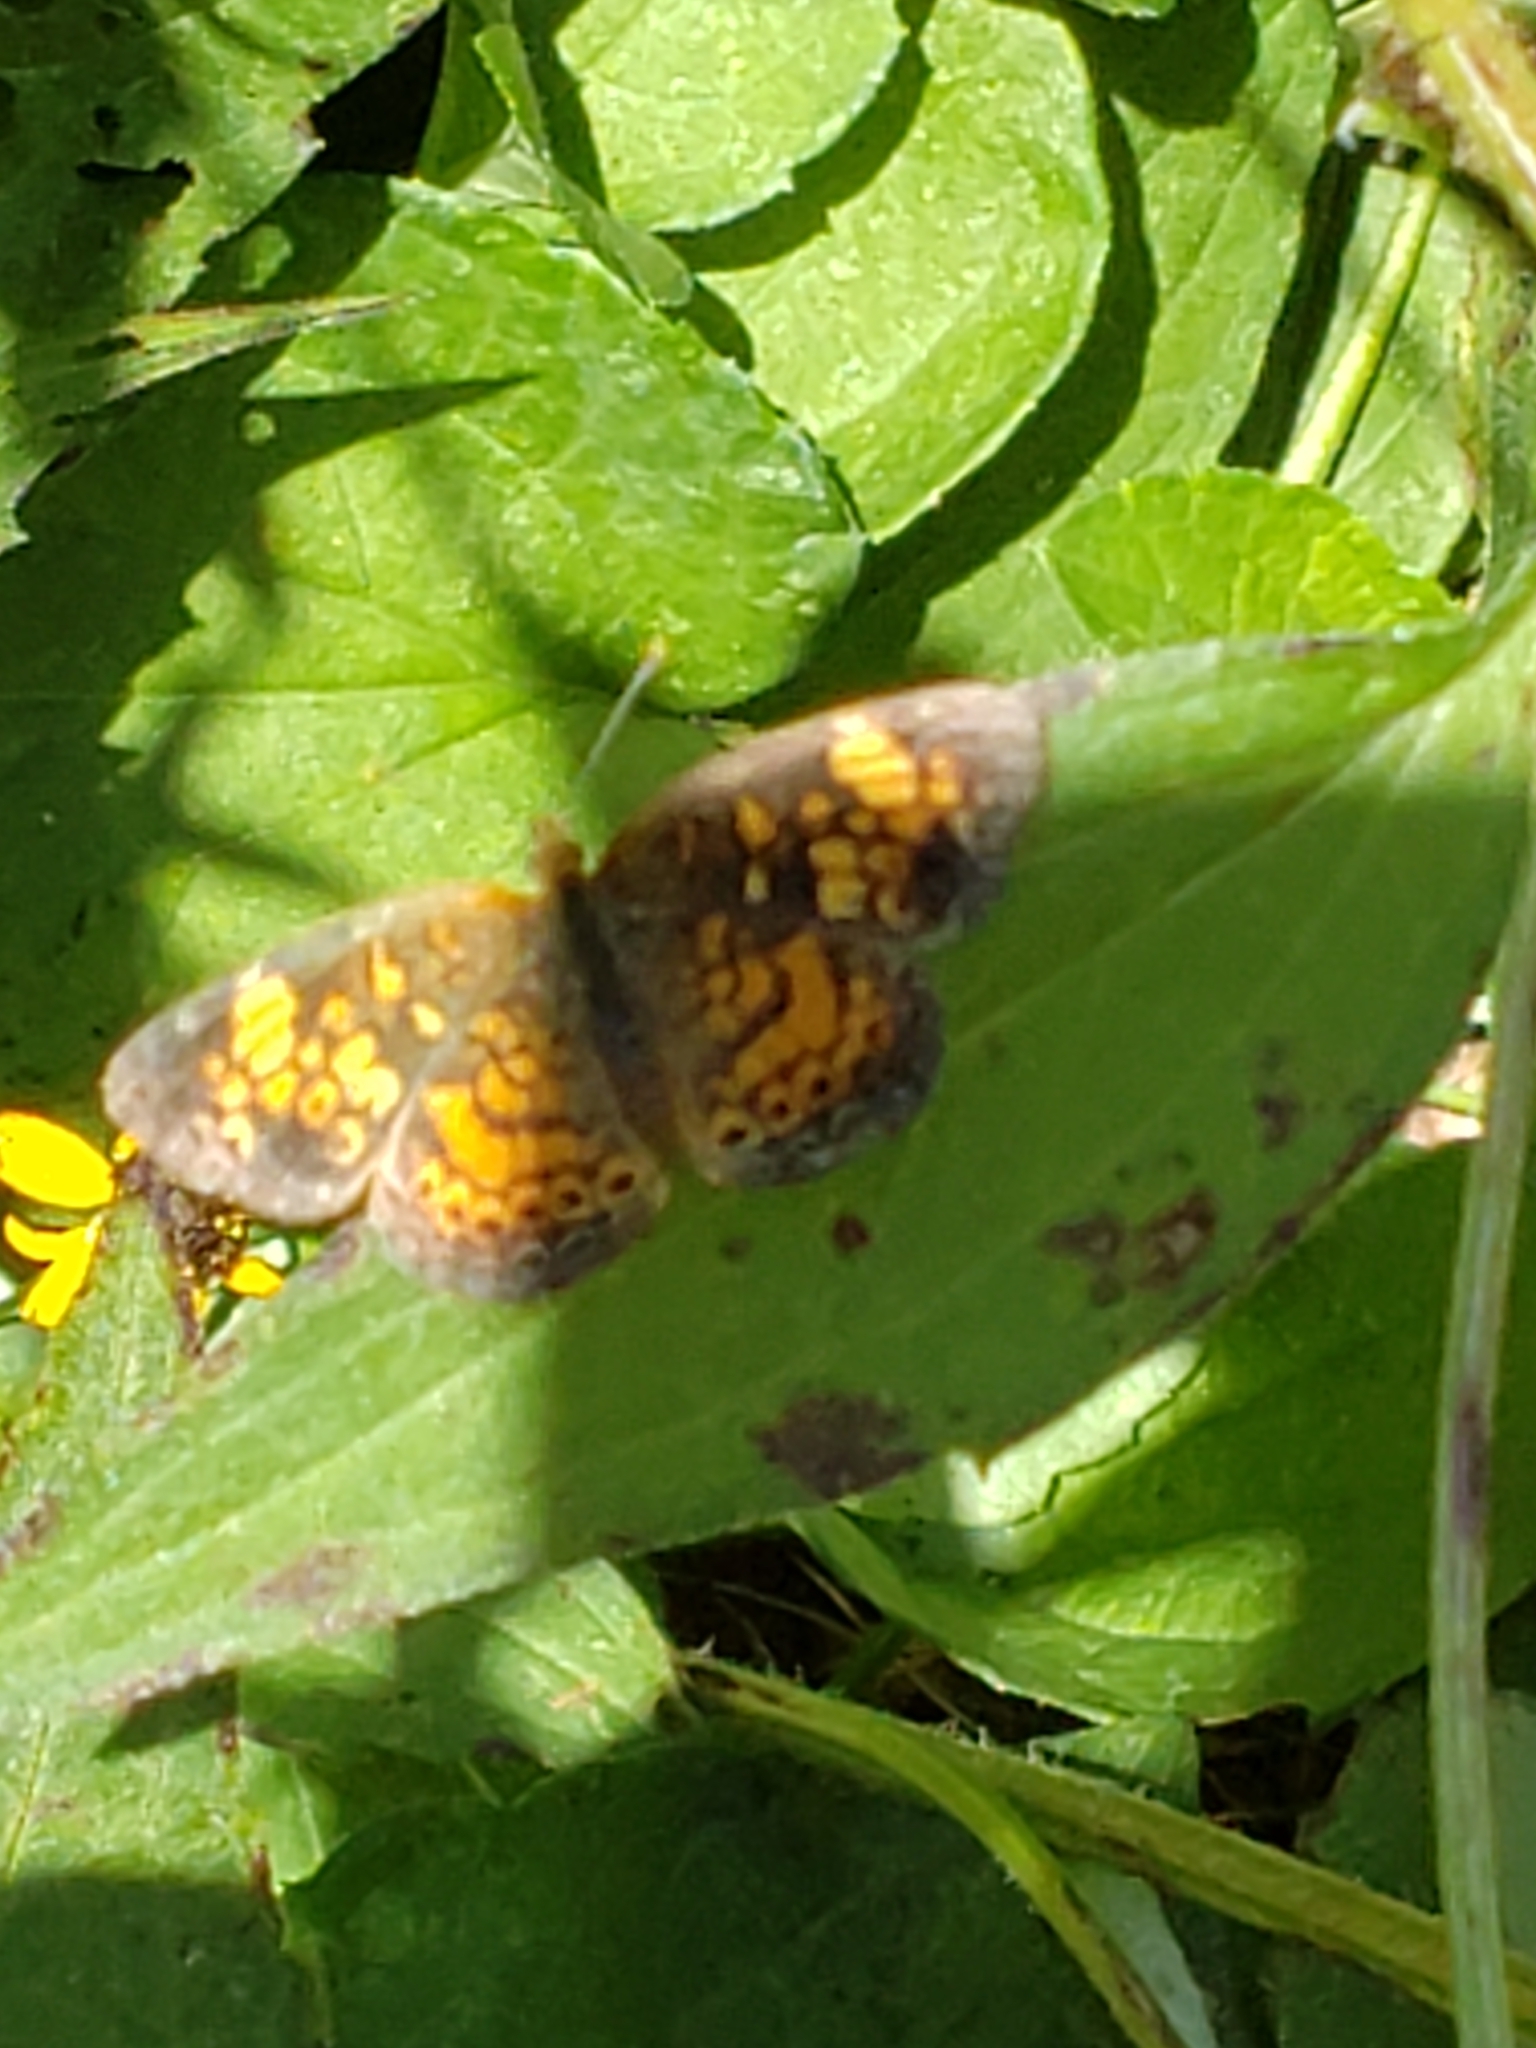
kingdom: Animalia
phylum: Arthropoda
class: Insecta
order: Lepidoptera
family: Nymphalidae
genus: Phyciodes
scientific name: Phyciodes tharos
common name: Pearl crescent
